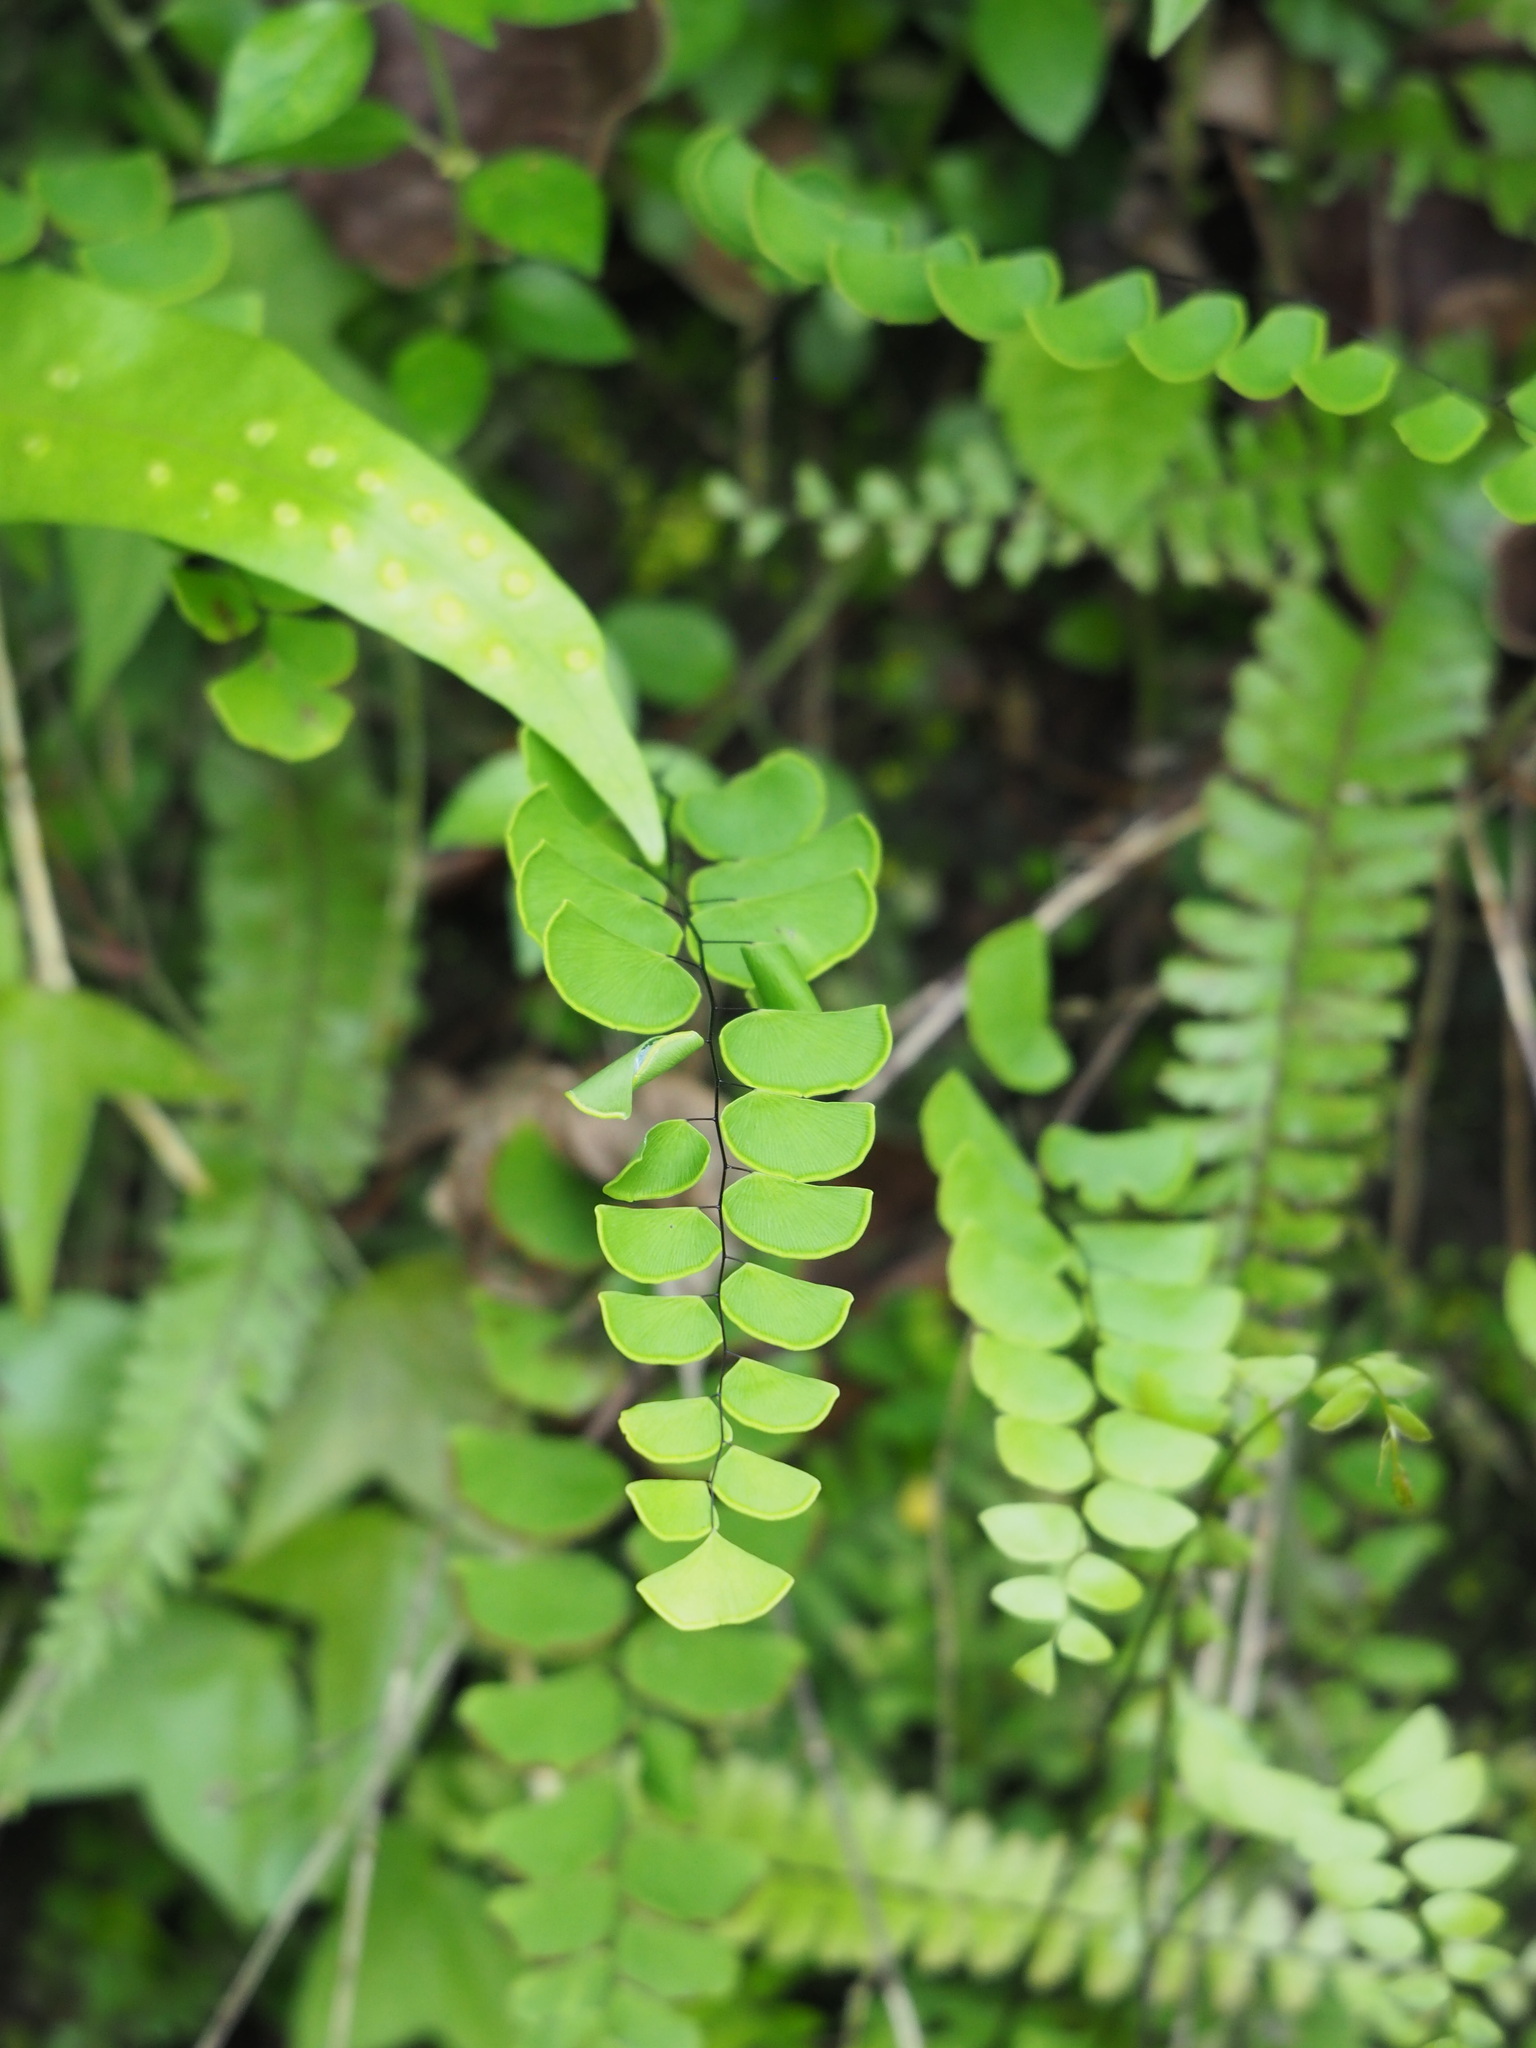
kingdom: Plantae
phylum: Tracheophyta
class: Polypodiopsida
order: Polypodiales
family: Pteridaceae
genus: Adiantum
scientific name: Adiantum philippense
